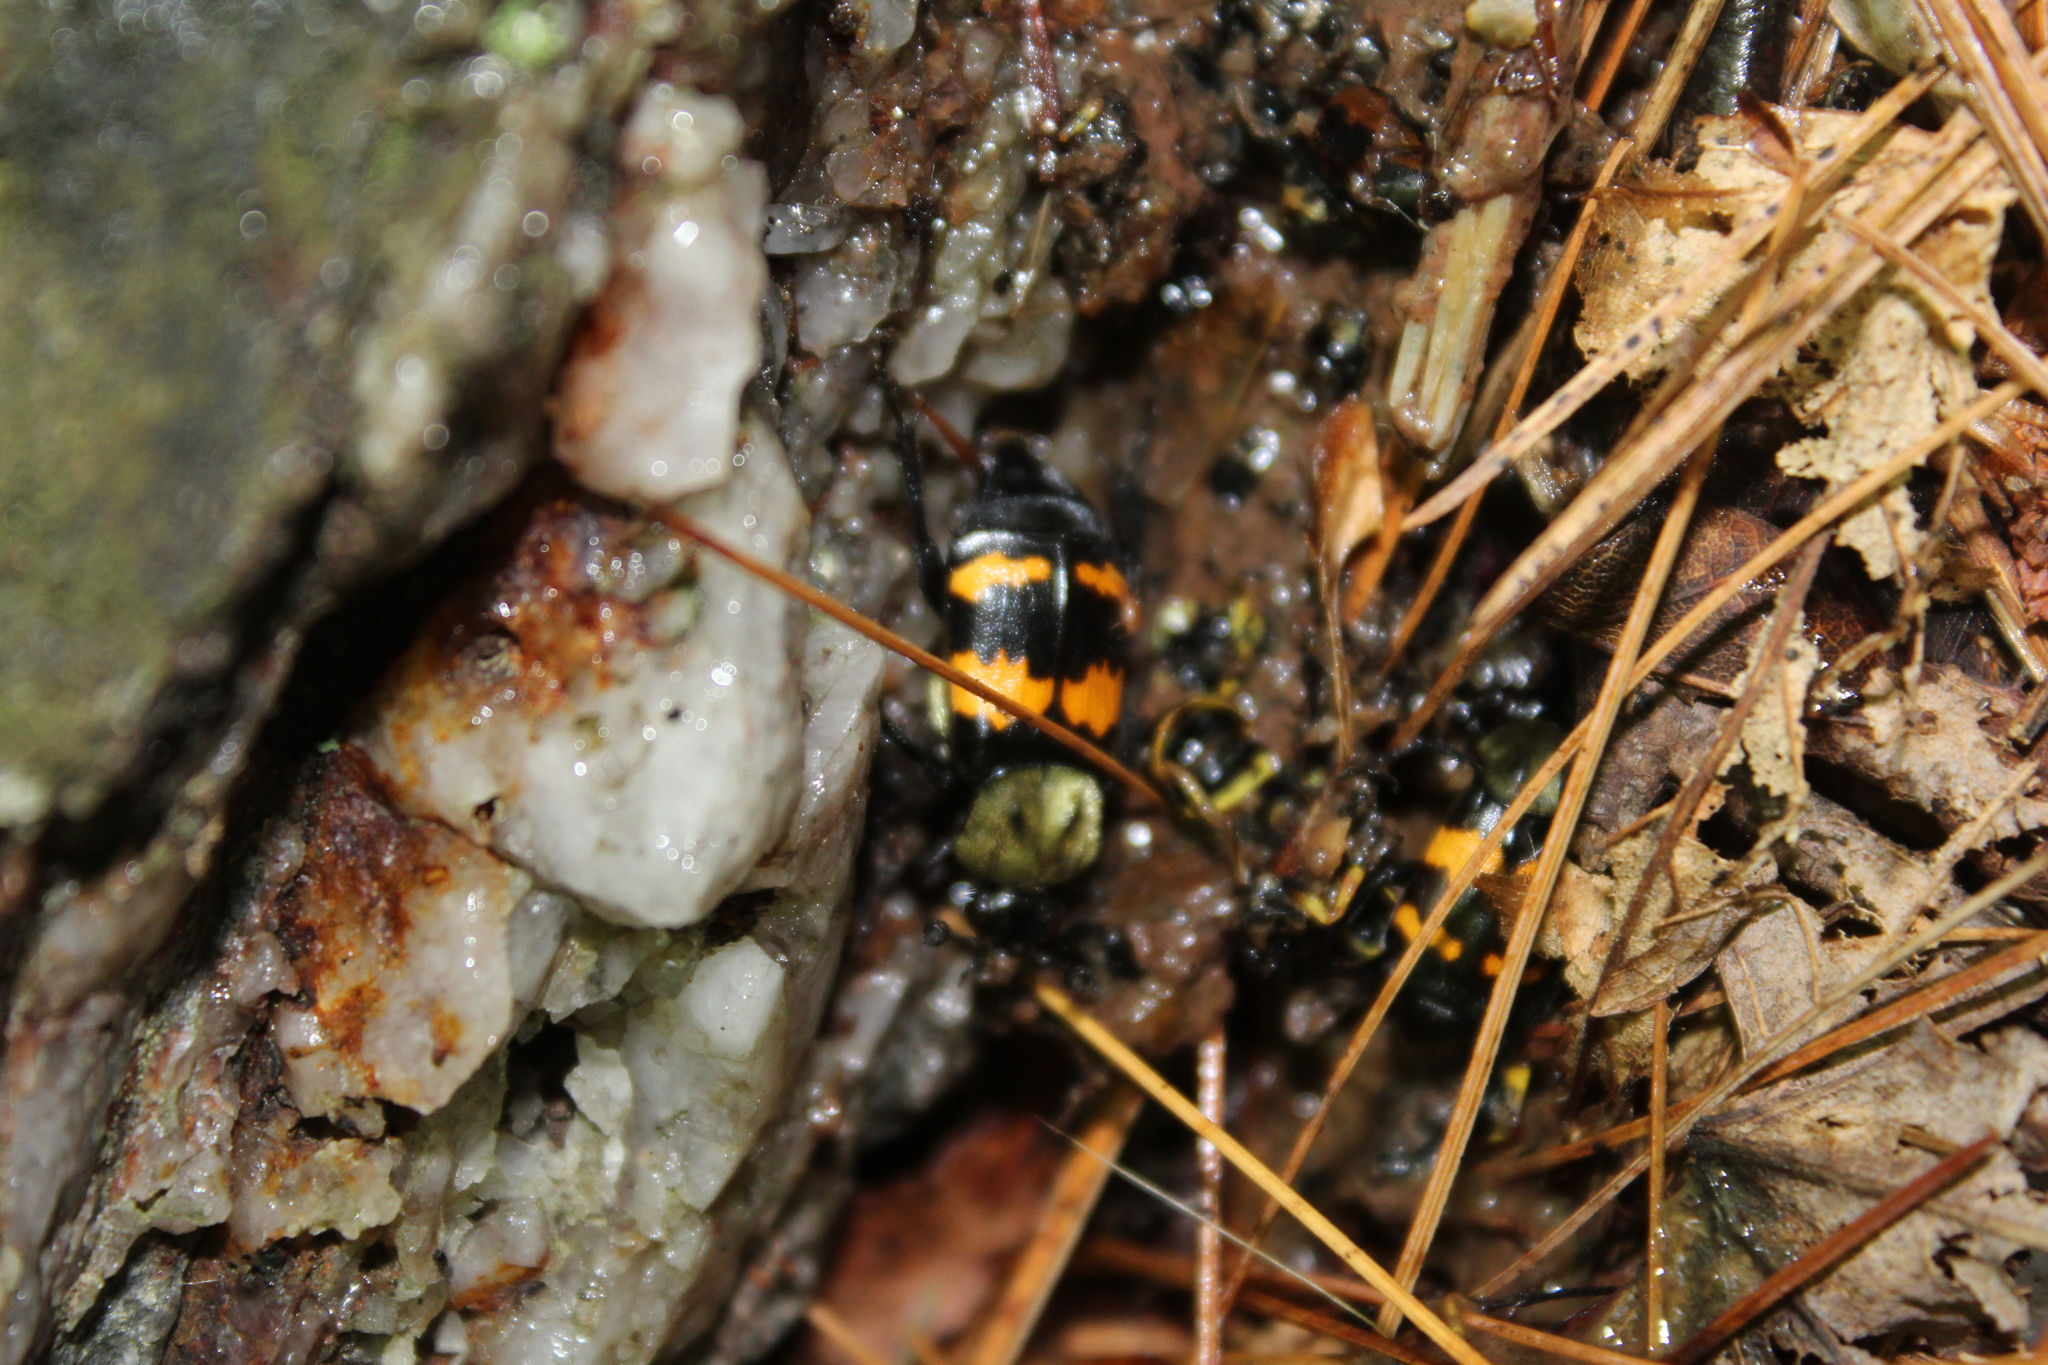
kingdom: Animalia
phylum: Arthropoda
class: Insecta
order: Coleoptera
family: Staphylinidae
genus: Nicrophorus
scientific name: Nicrophorus tomentosus
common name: Tomentose burying beetle
